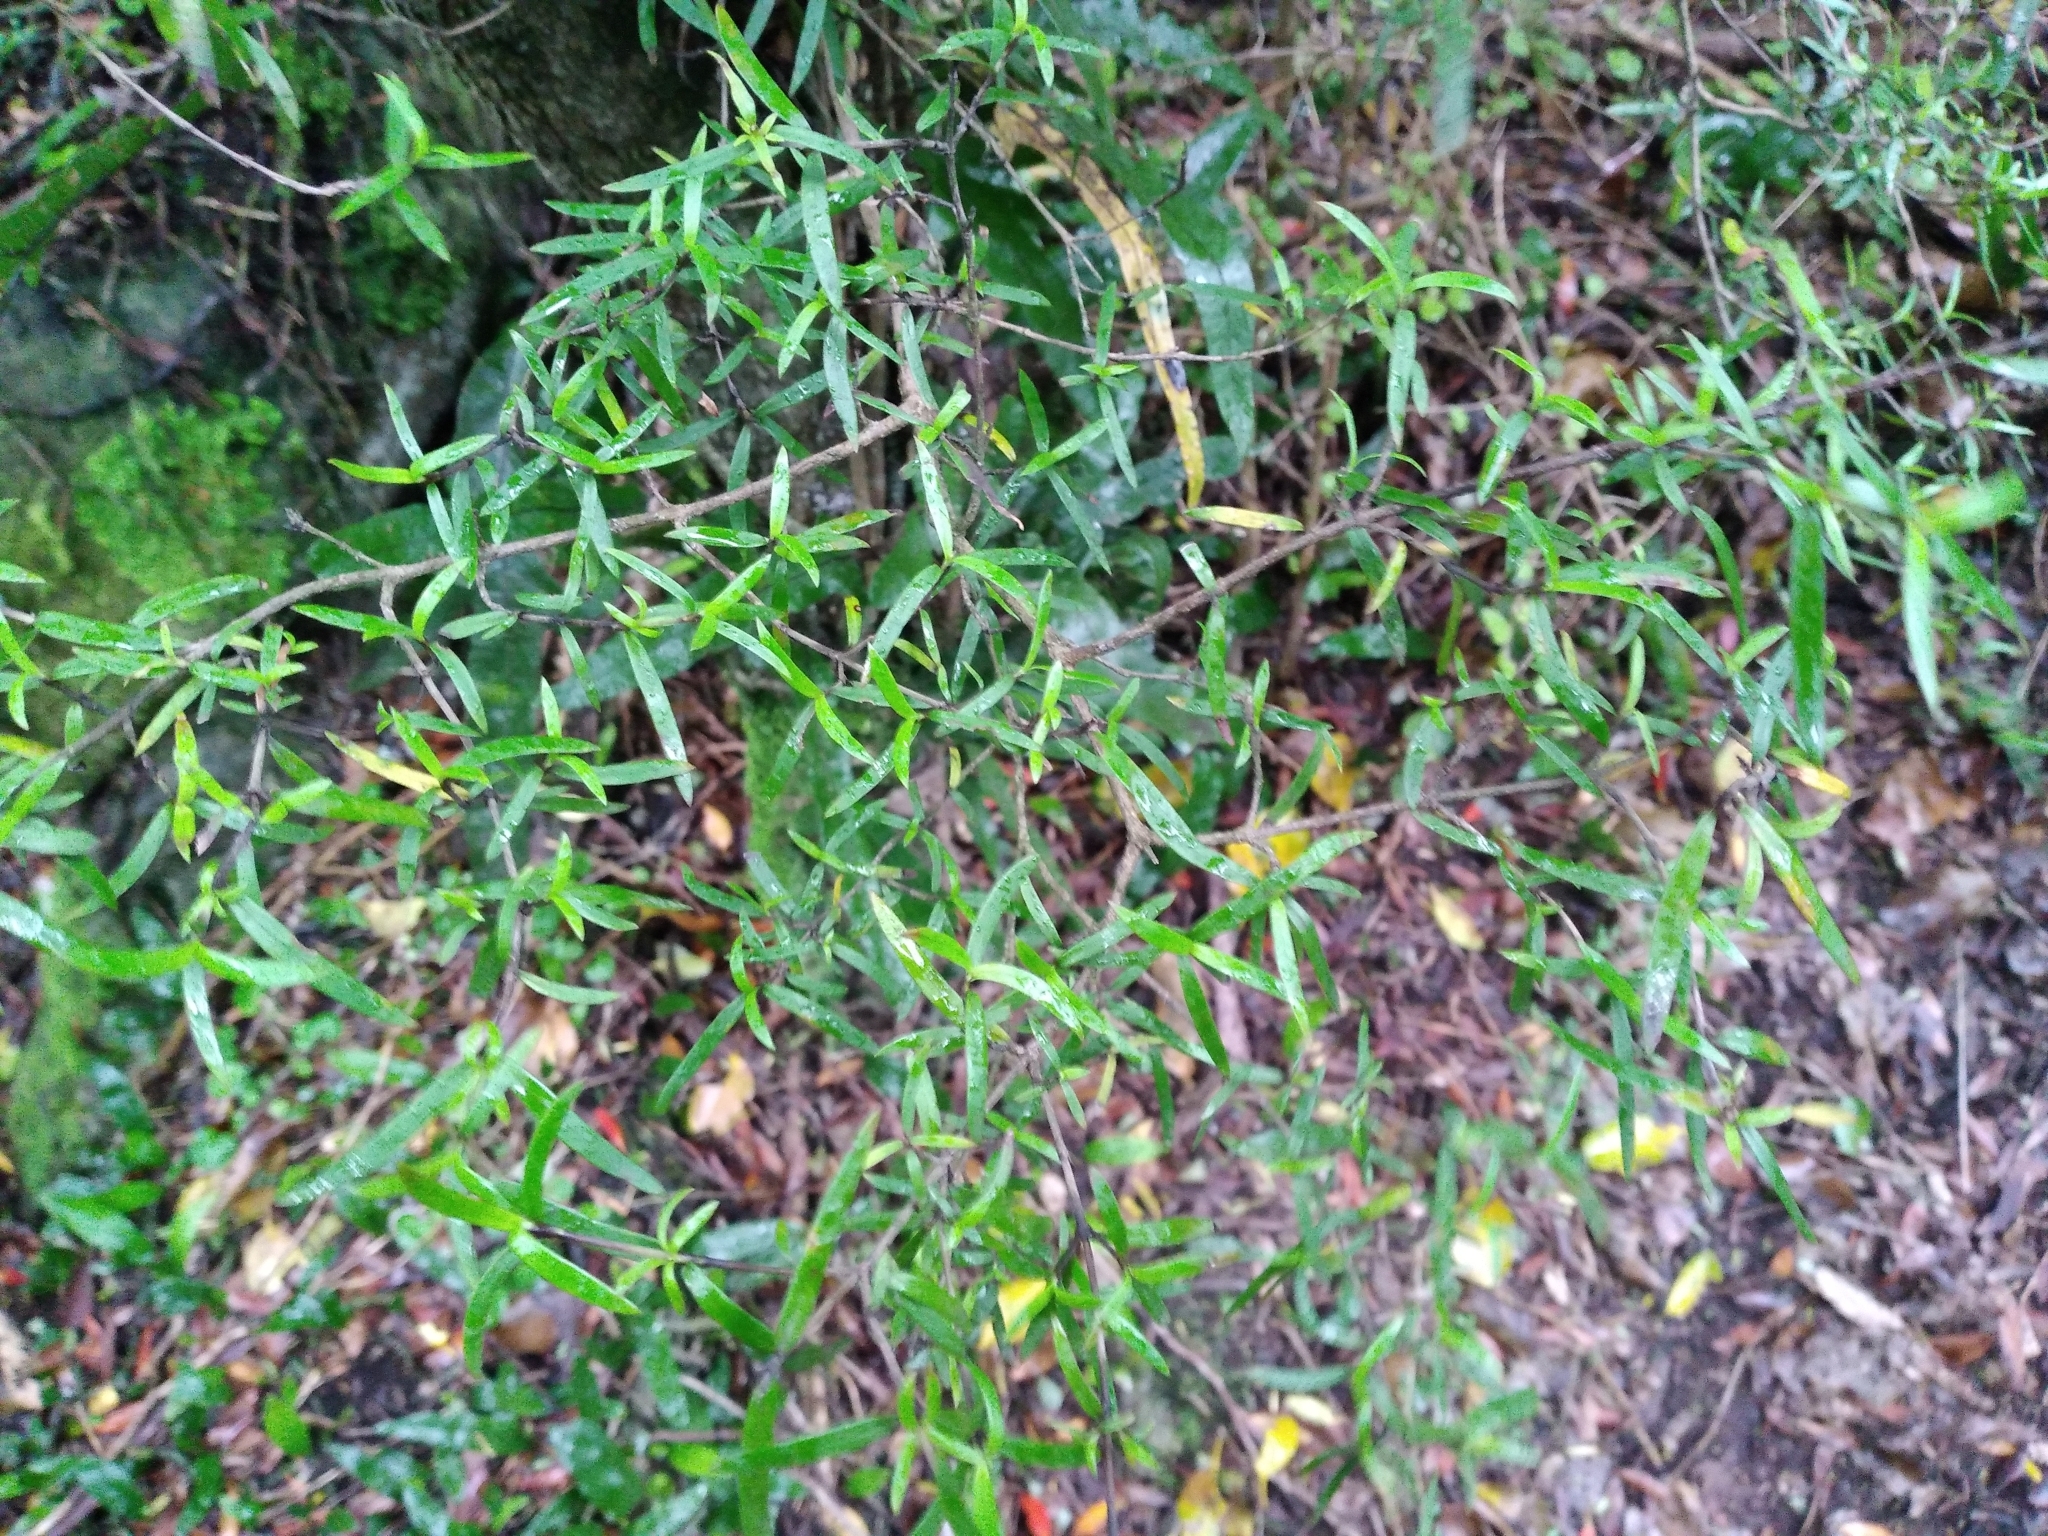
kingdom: Plantae
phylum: Tracheophyta
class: Magnoliopsida
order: Gentianales
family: Rubiaceae
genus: Coprosma
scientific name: Coprosma linariifolia
